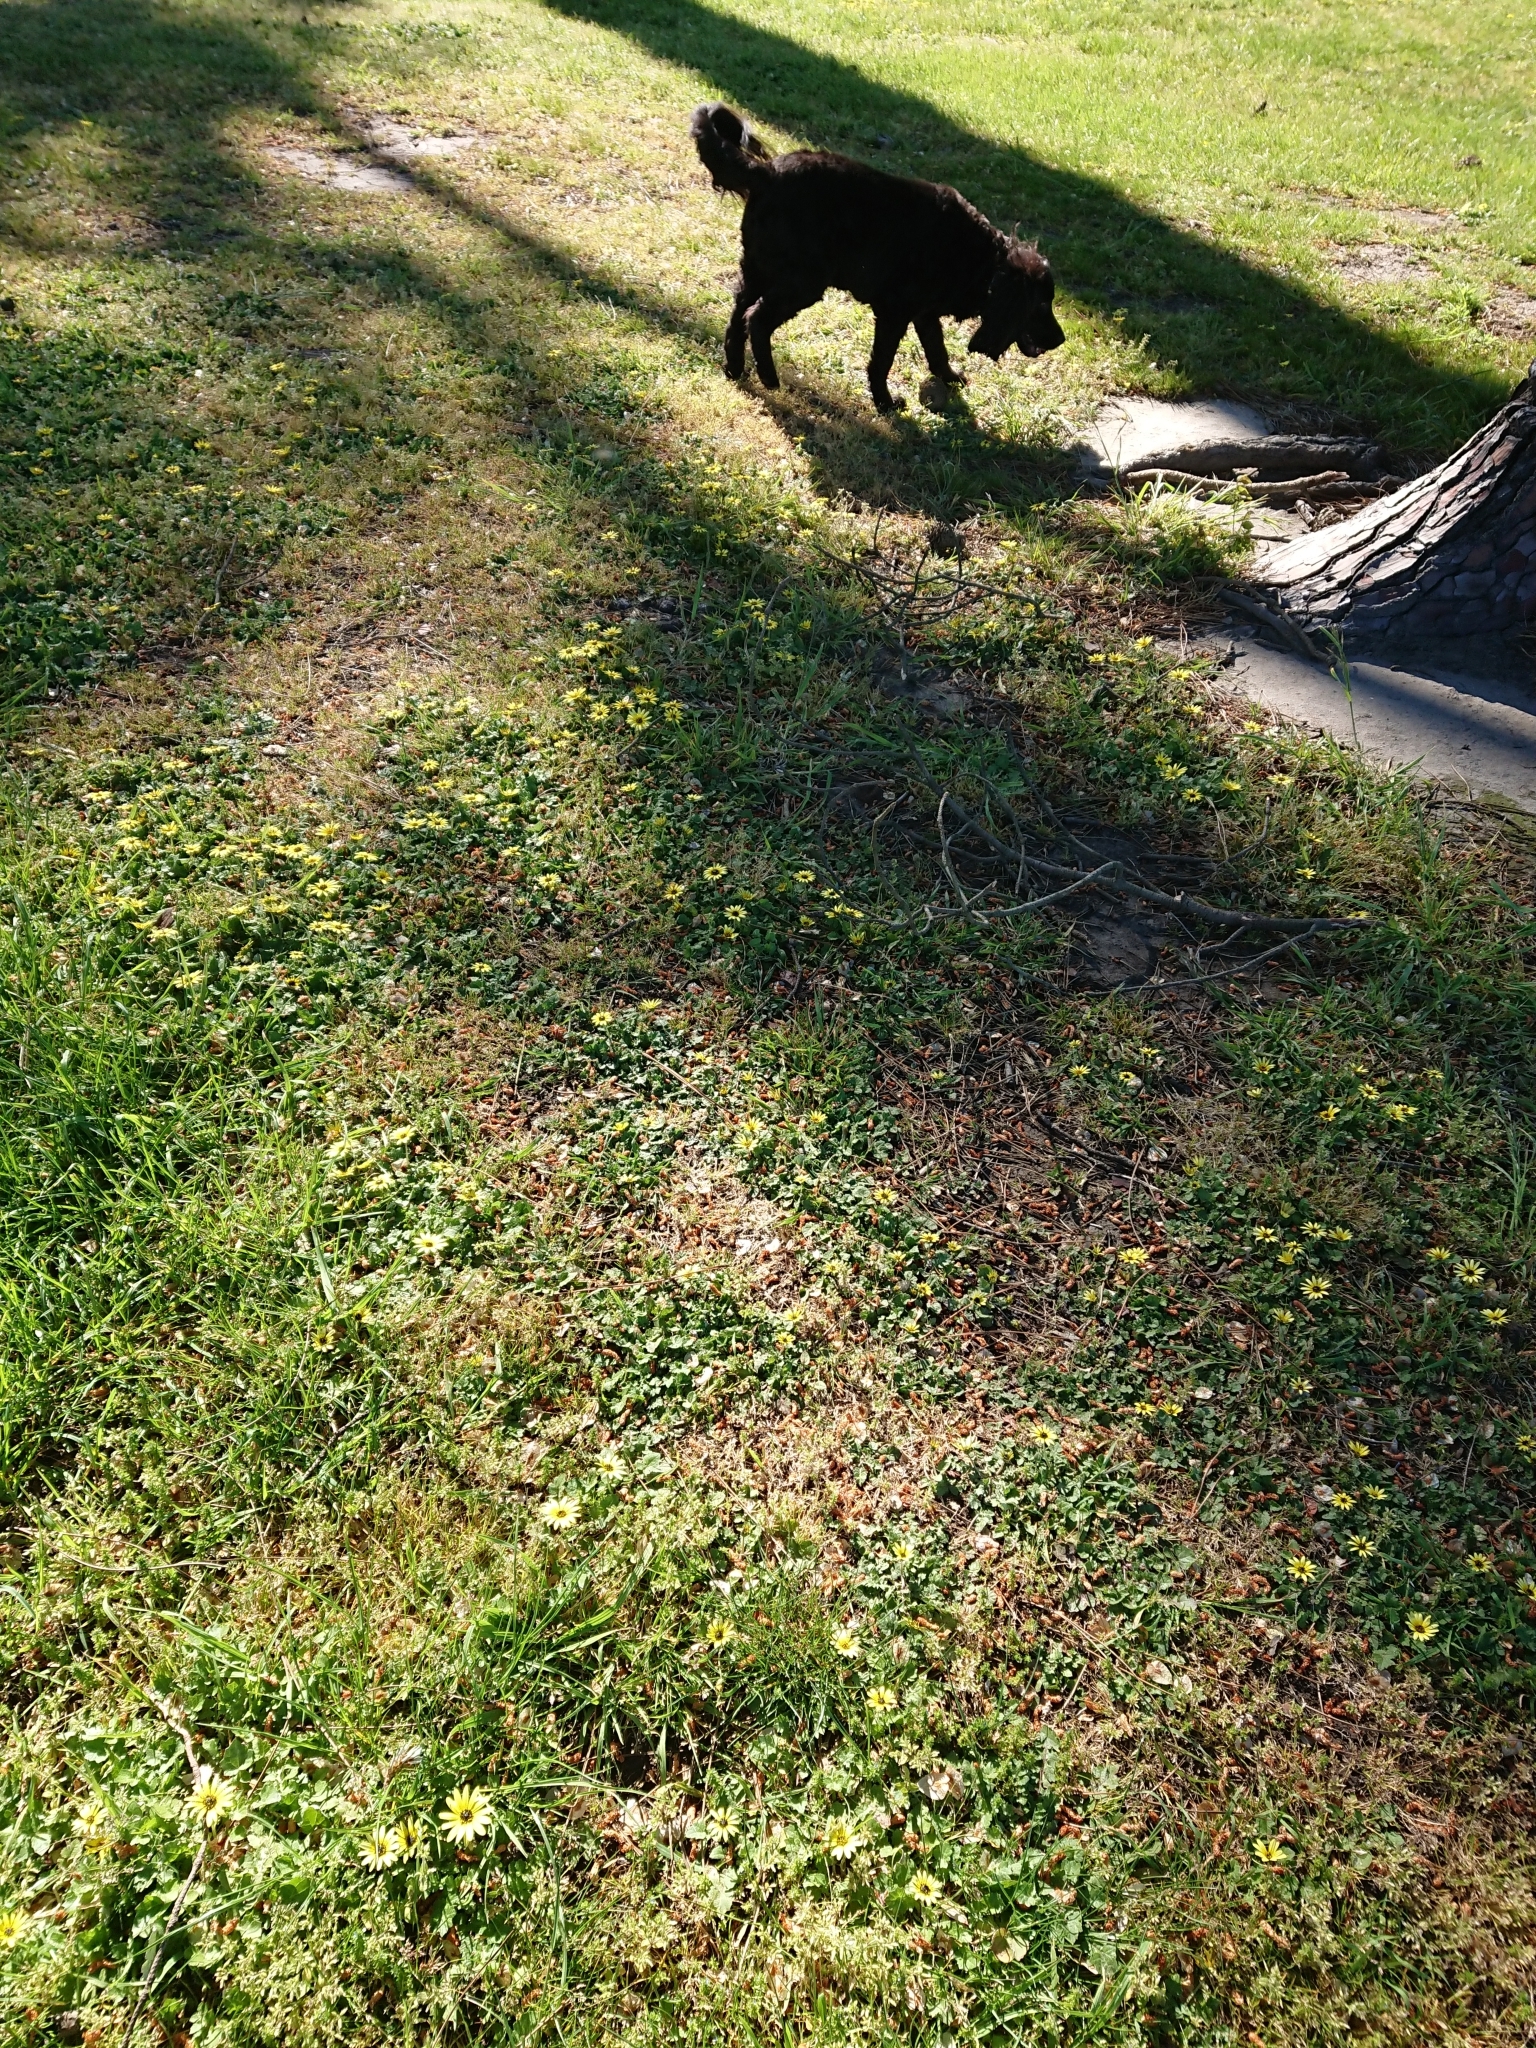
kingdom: Plantae
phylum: Tracheophyta
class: Magnoliopsida
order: Asterales
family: Asteraceae
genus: Arctotheca
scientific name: Arctotheca calendula
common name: Capeweed
